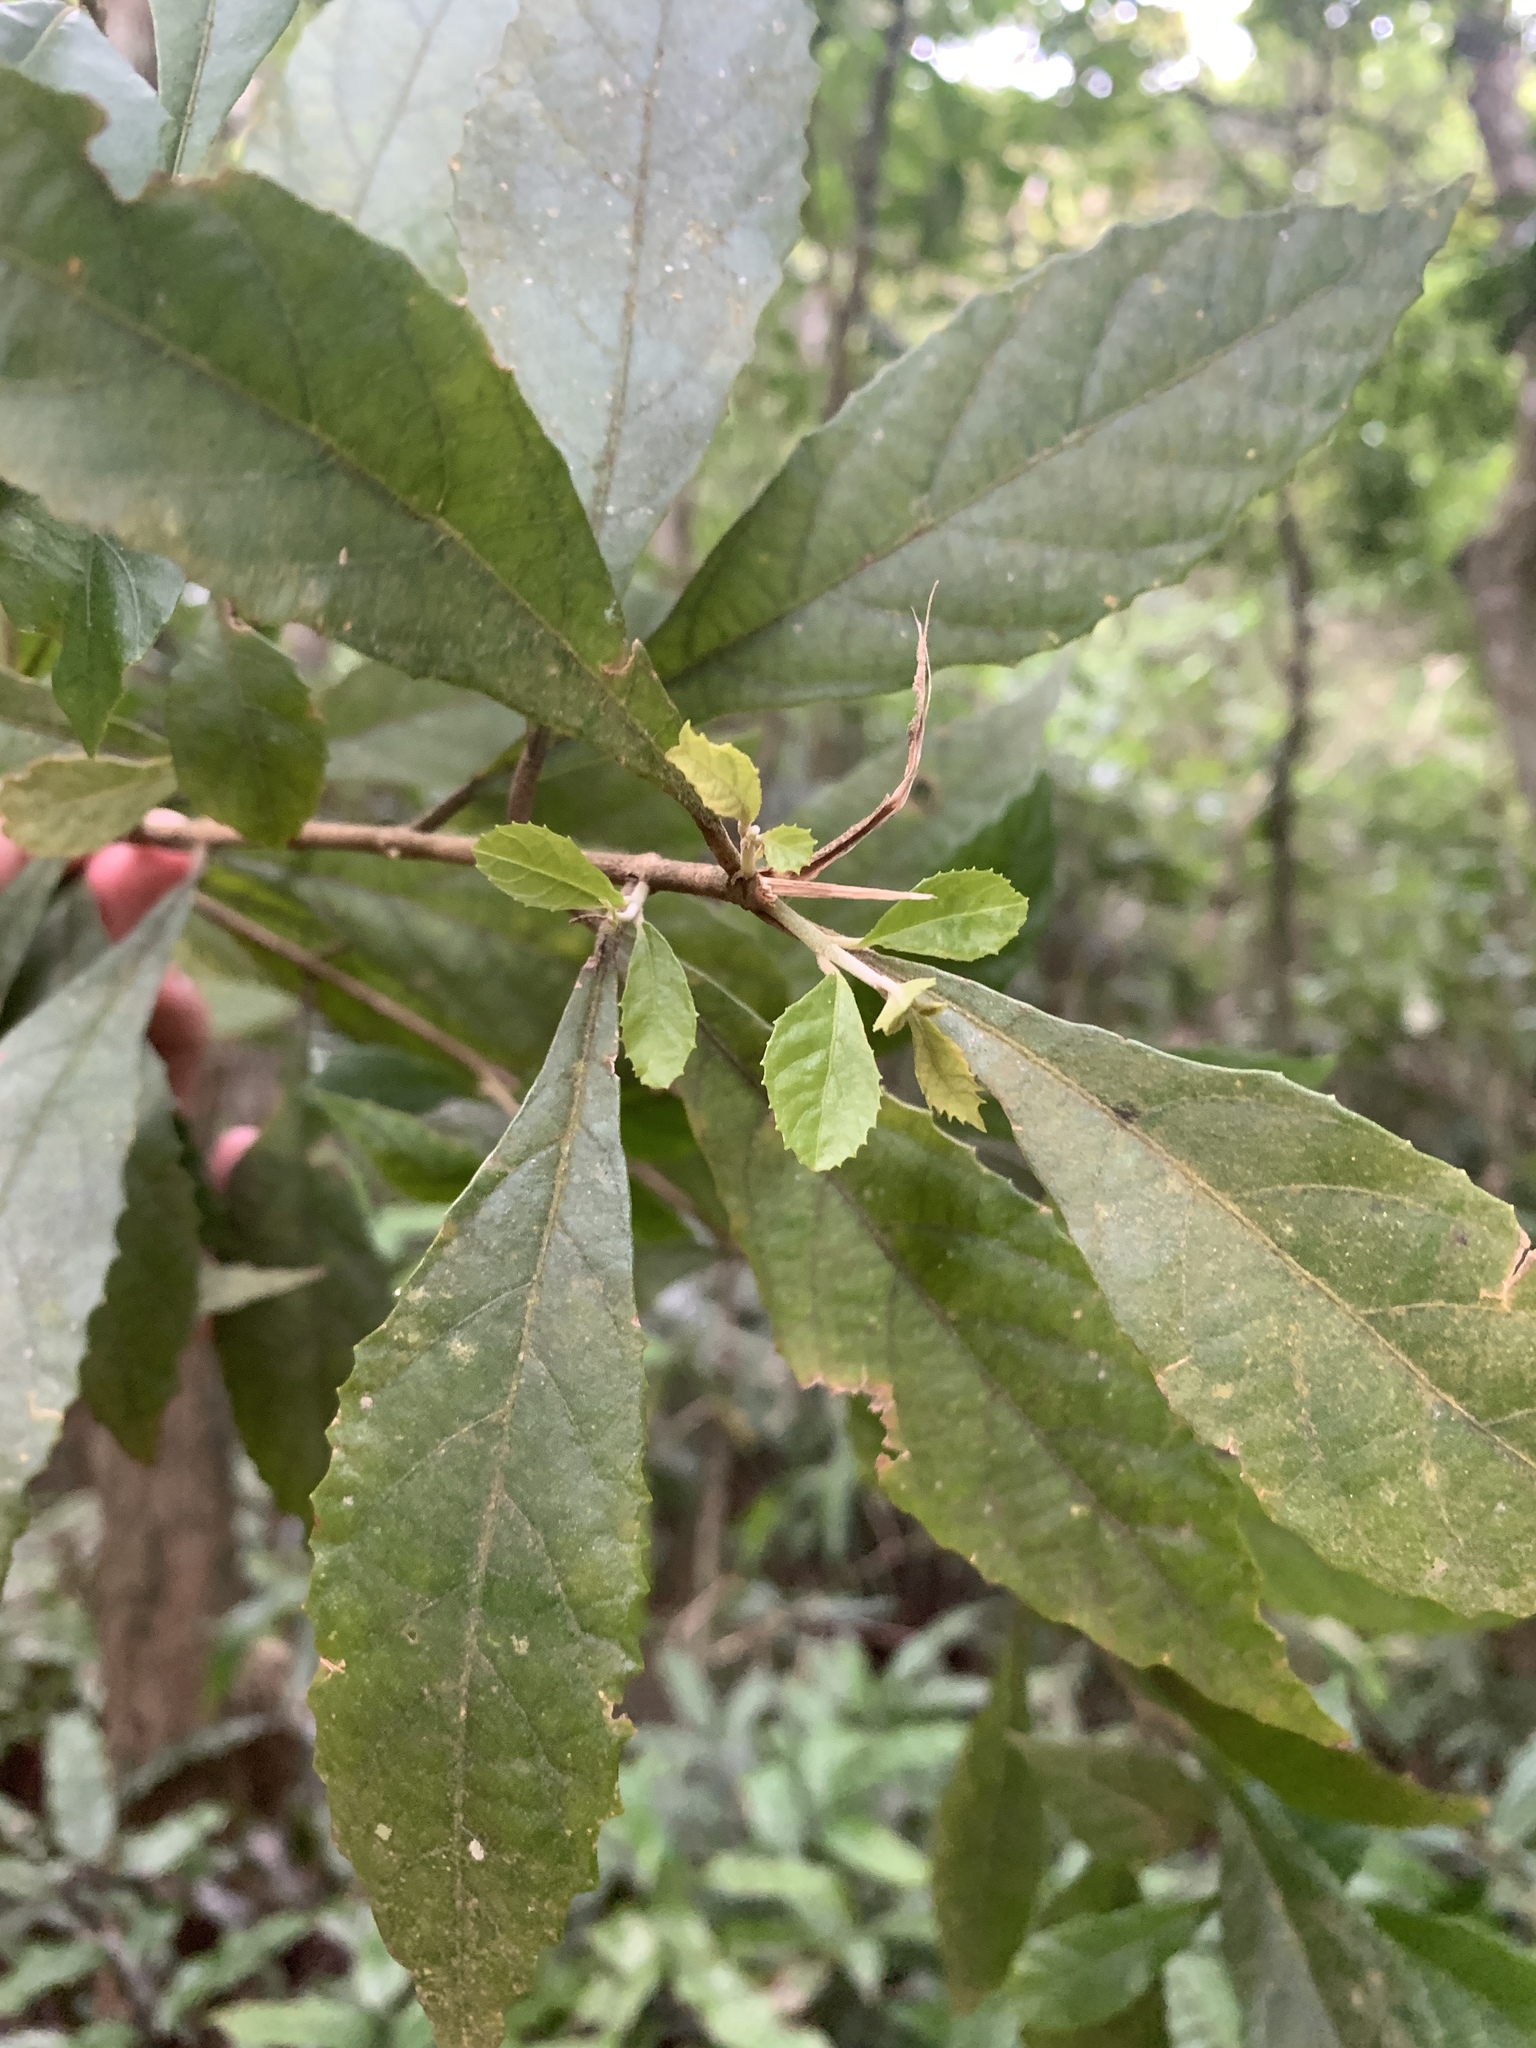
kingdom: Plantae
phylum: Tracheophyta
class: Magnoliopsida
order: Lamiales
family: Lamiaceae
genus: Callicarpa
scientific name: Callicarpa remotiflora
